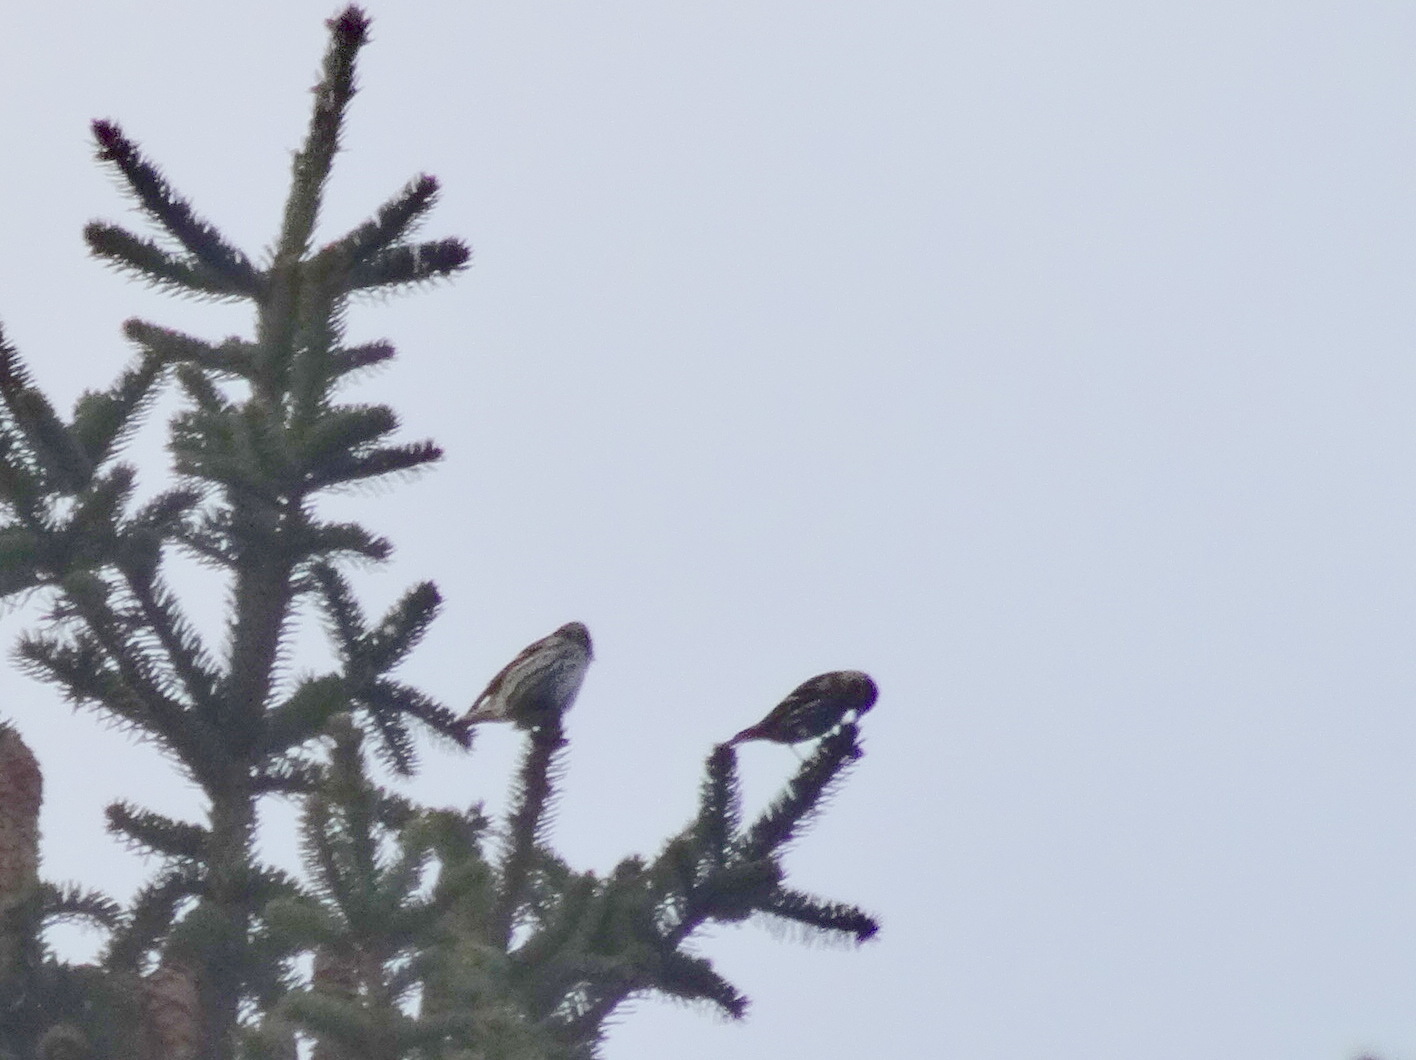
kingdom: Animalia
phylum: Chordata
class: Aves
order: Passeriformes
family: Fringillidae
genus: Spinus
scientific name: Spinus spinus
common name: Eurasian siskin
